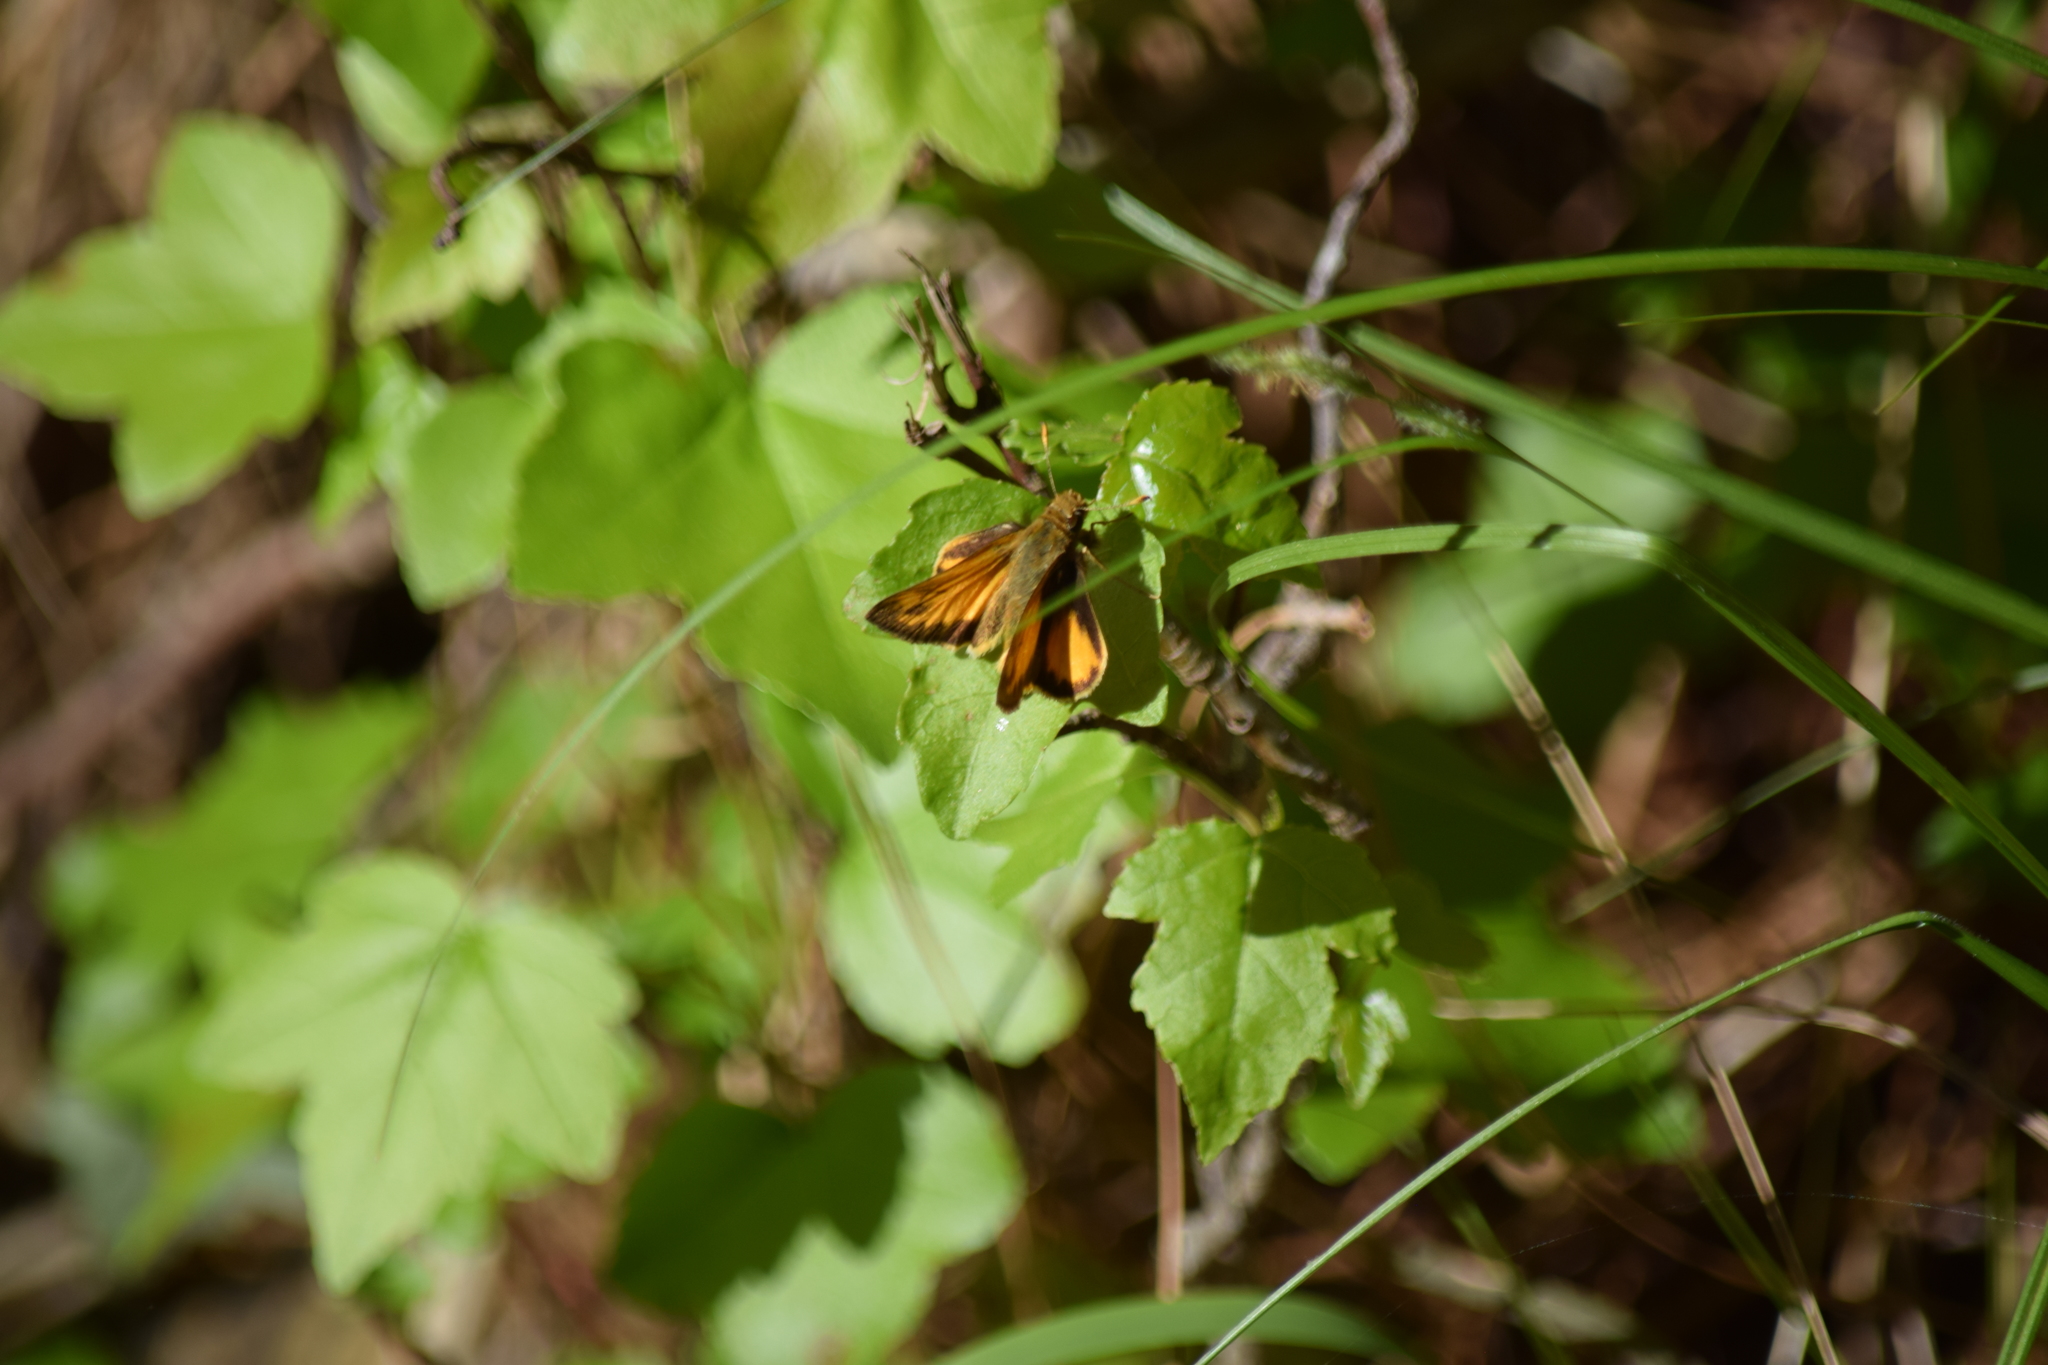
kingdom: Animalia
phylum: Arthropoda
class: Insecta
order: Lepidoptera
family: Hesperiidae
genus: Lon
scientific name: Lon zabulon
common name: Zabulon skipper
